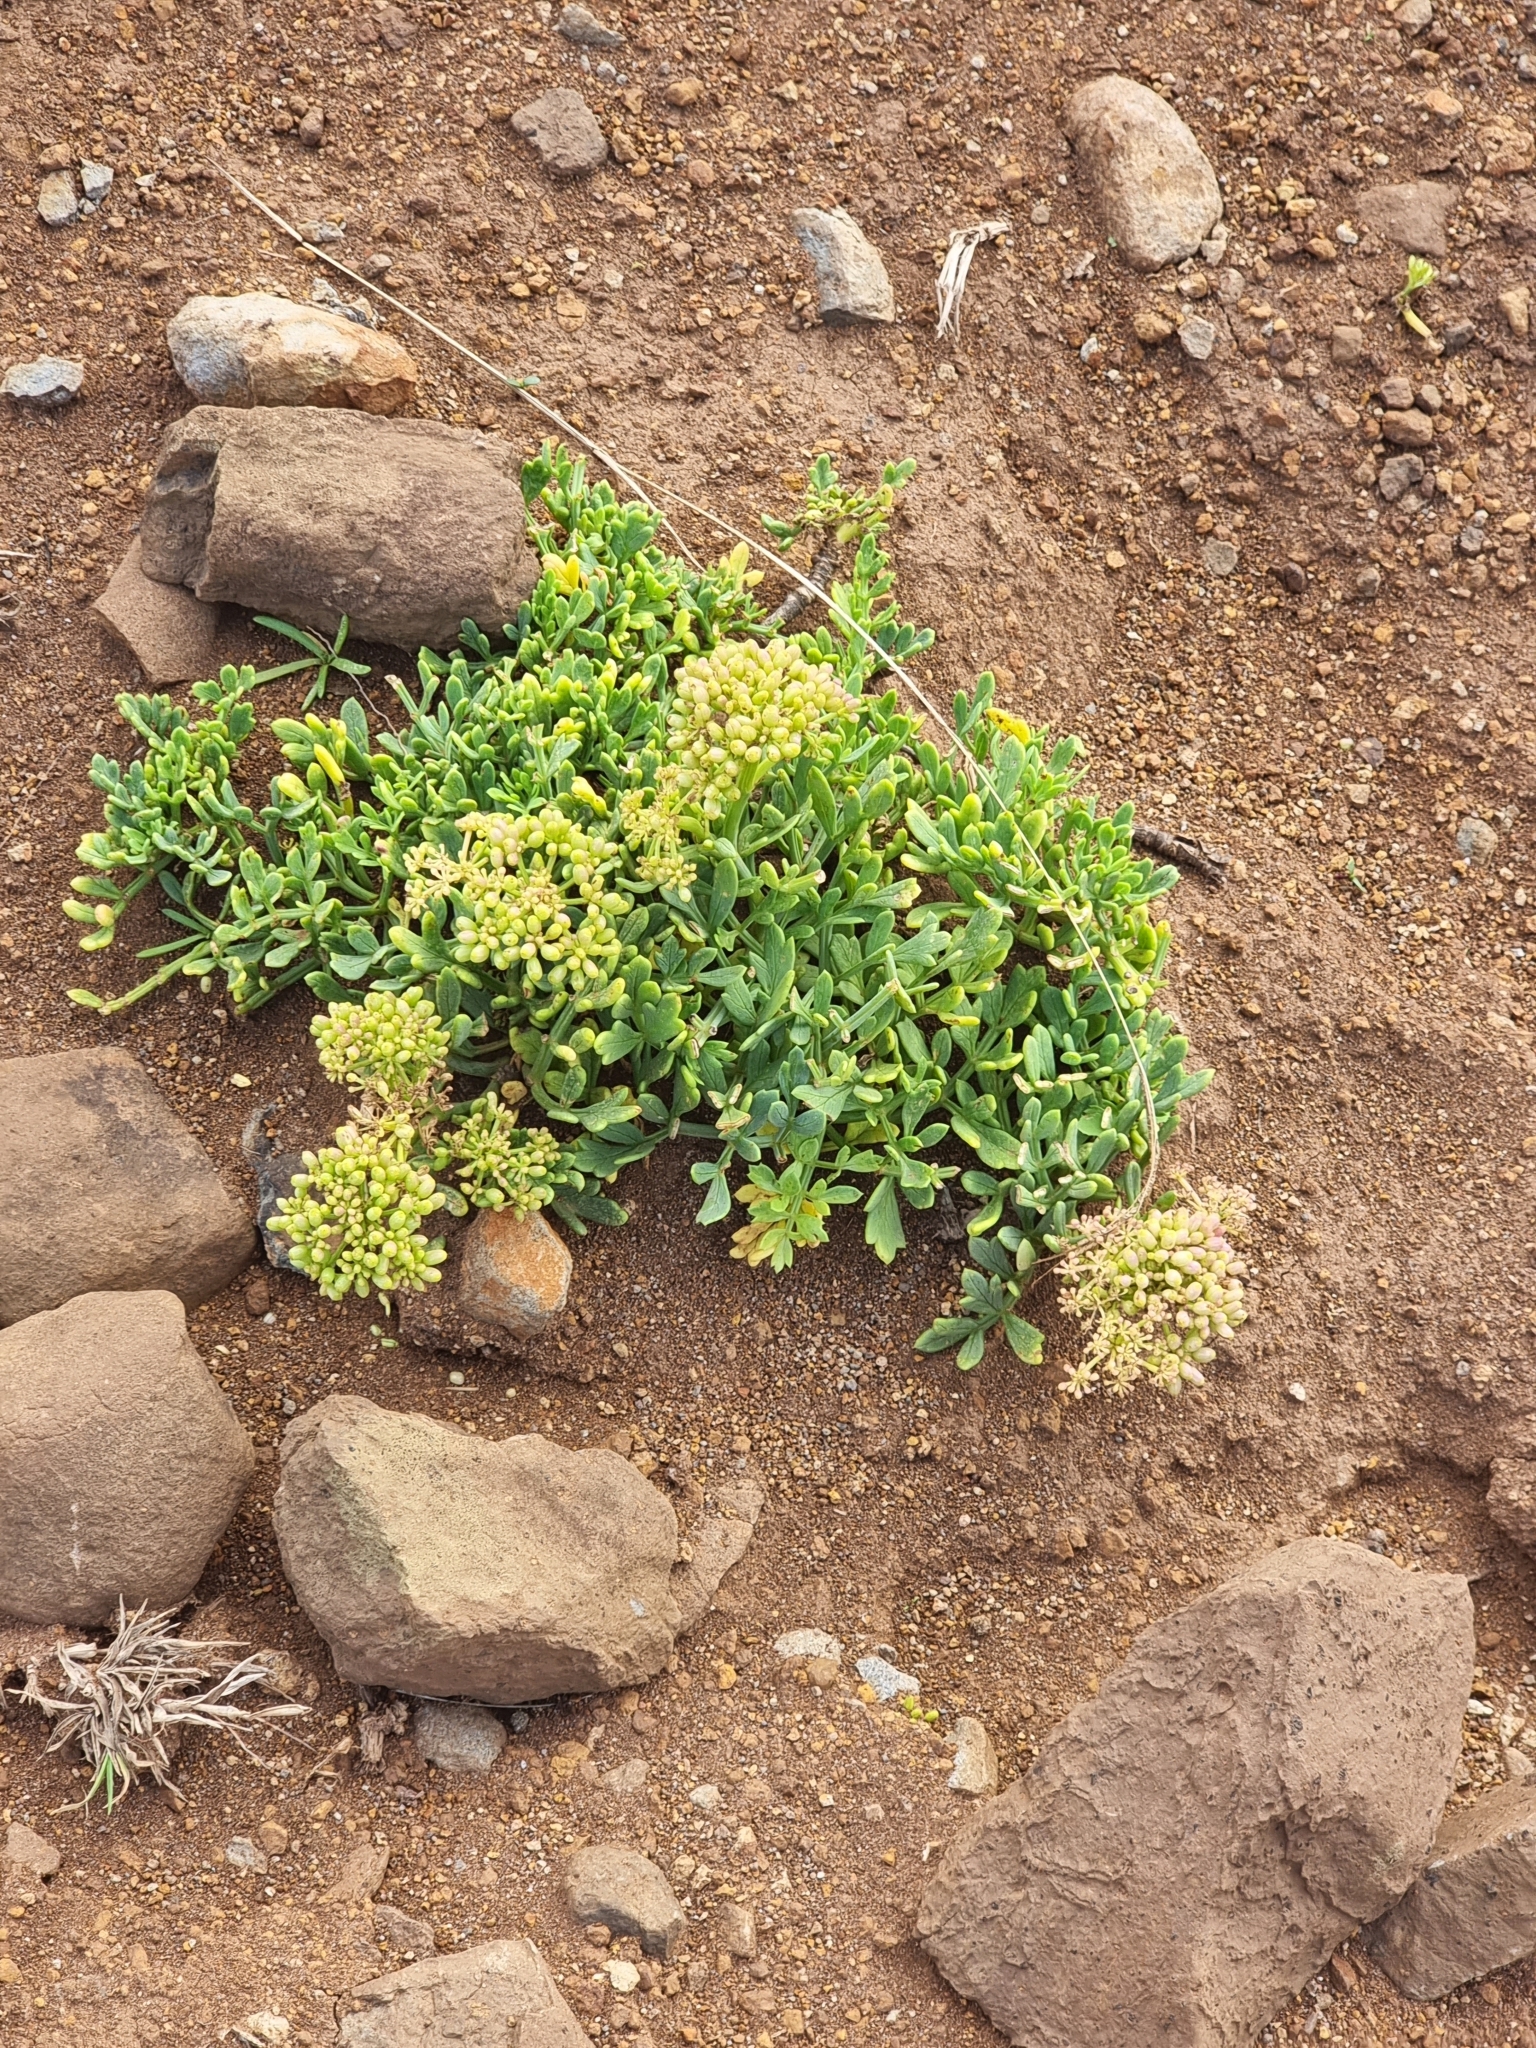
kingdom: Plantae
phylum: Tracheophyta
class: Magnoliopsida
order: Apiales
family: Apiaceae
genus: Crithmum
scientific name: Crithmum maritimum
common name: Rock samphire
